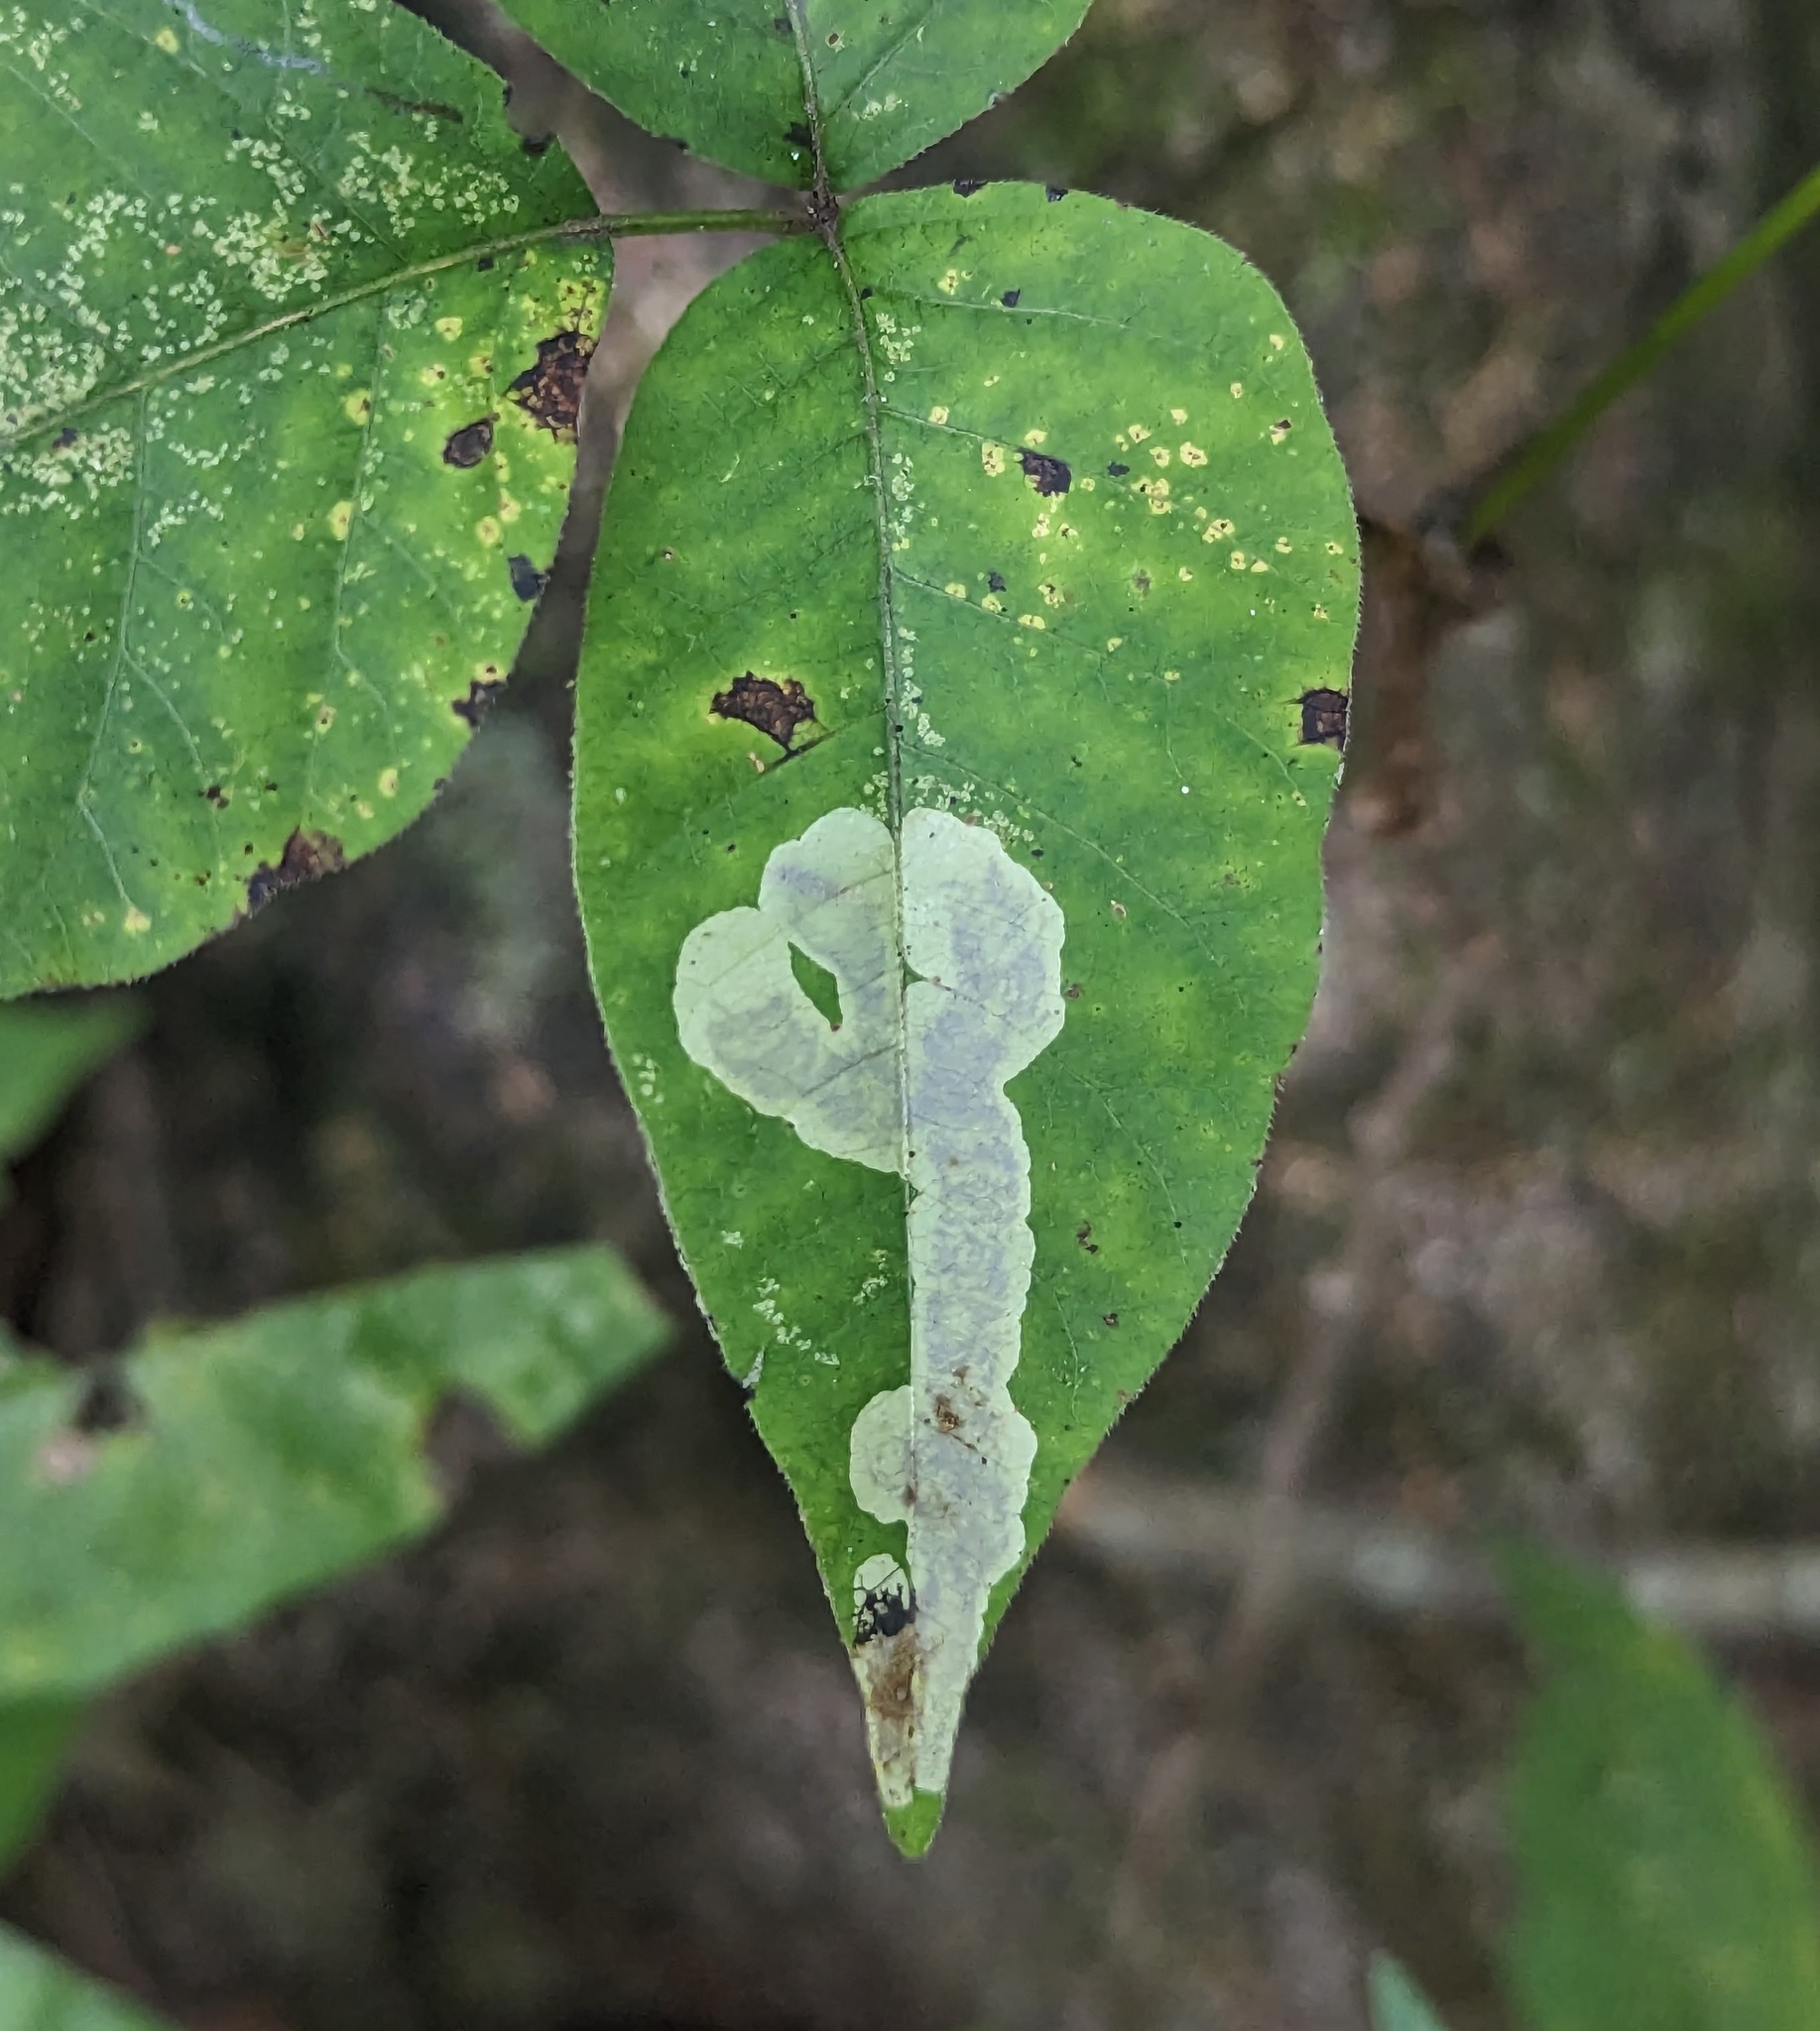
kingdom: Animalia
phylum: Arthropoda
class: Insecta
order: Lepidoptera
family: Gracillariidae
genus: Cameraria
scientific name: Cameraria guttifinitella
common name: Poison ivy leaf-miner moth
